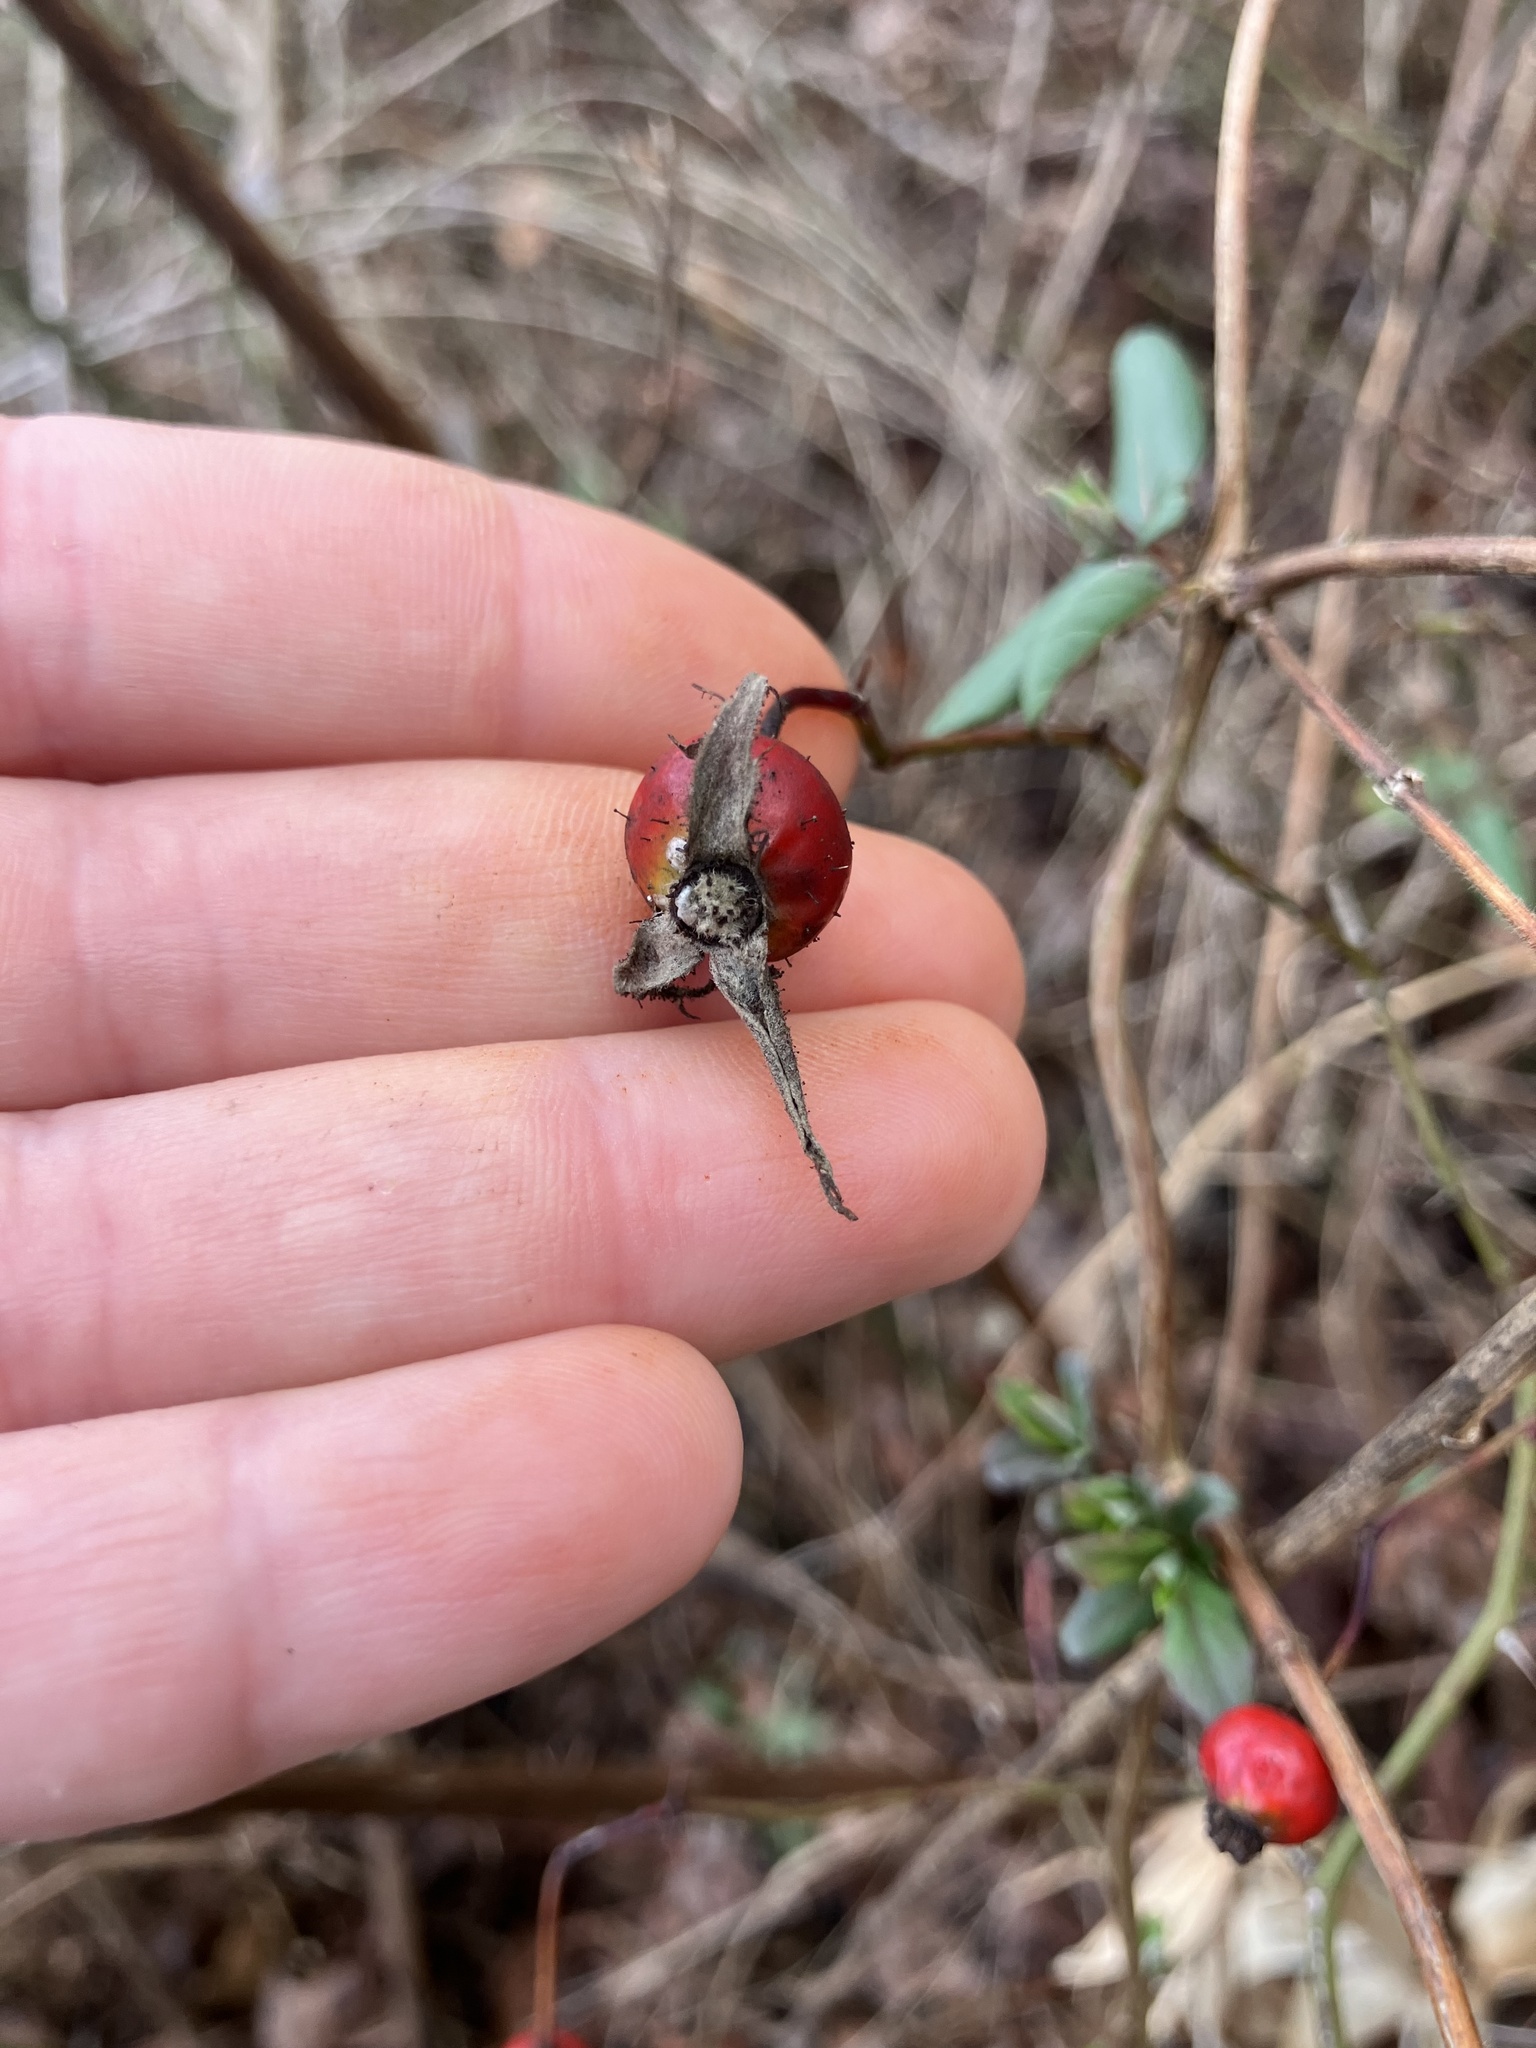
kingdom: Plantae
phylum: Tracheophyta
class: Magnoliopsida
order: Rosales
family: Rosaceae
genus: Rosa
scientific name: Rosa carolina
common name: Pasture rose
